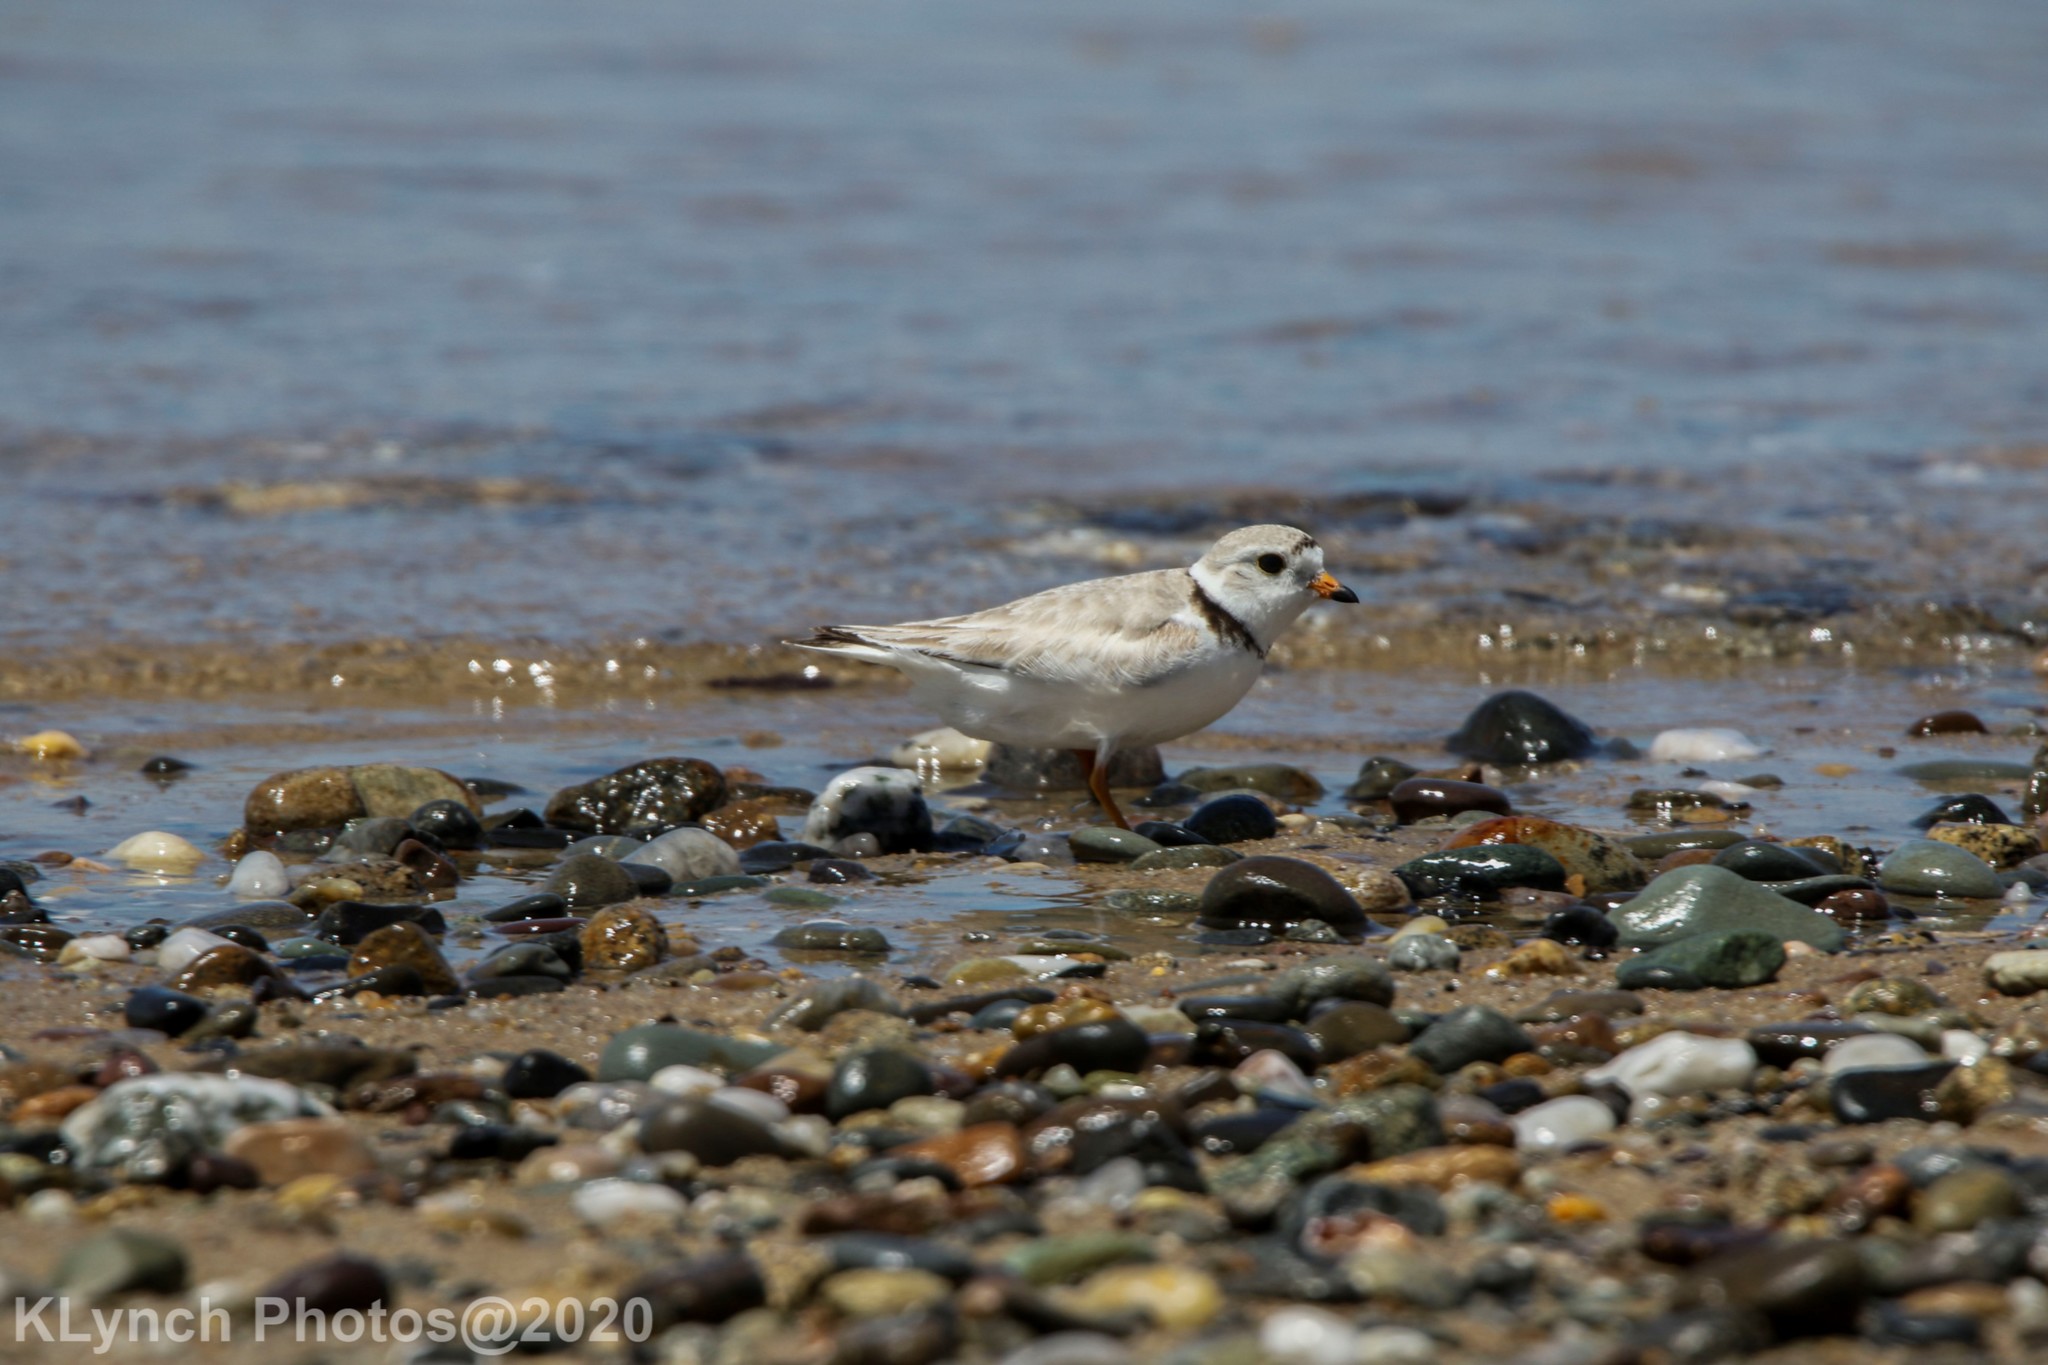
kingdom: Animalia
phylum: Chordata
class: Aves
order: Charadriiformes
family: Charadriidae
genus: Charadrius
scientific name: Charadrius melodus
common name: Piping plover
